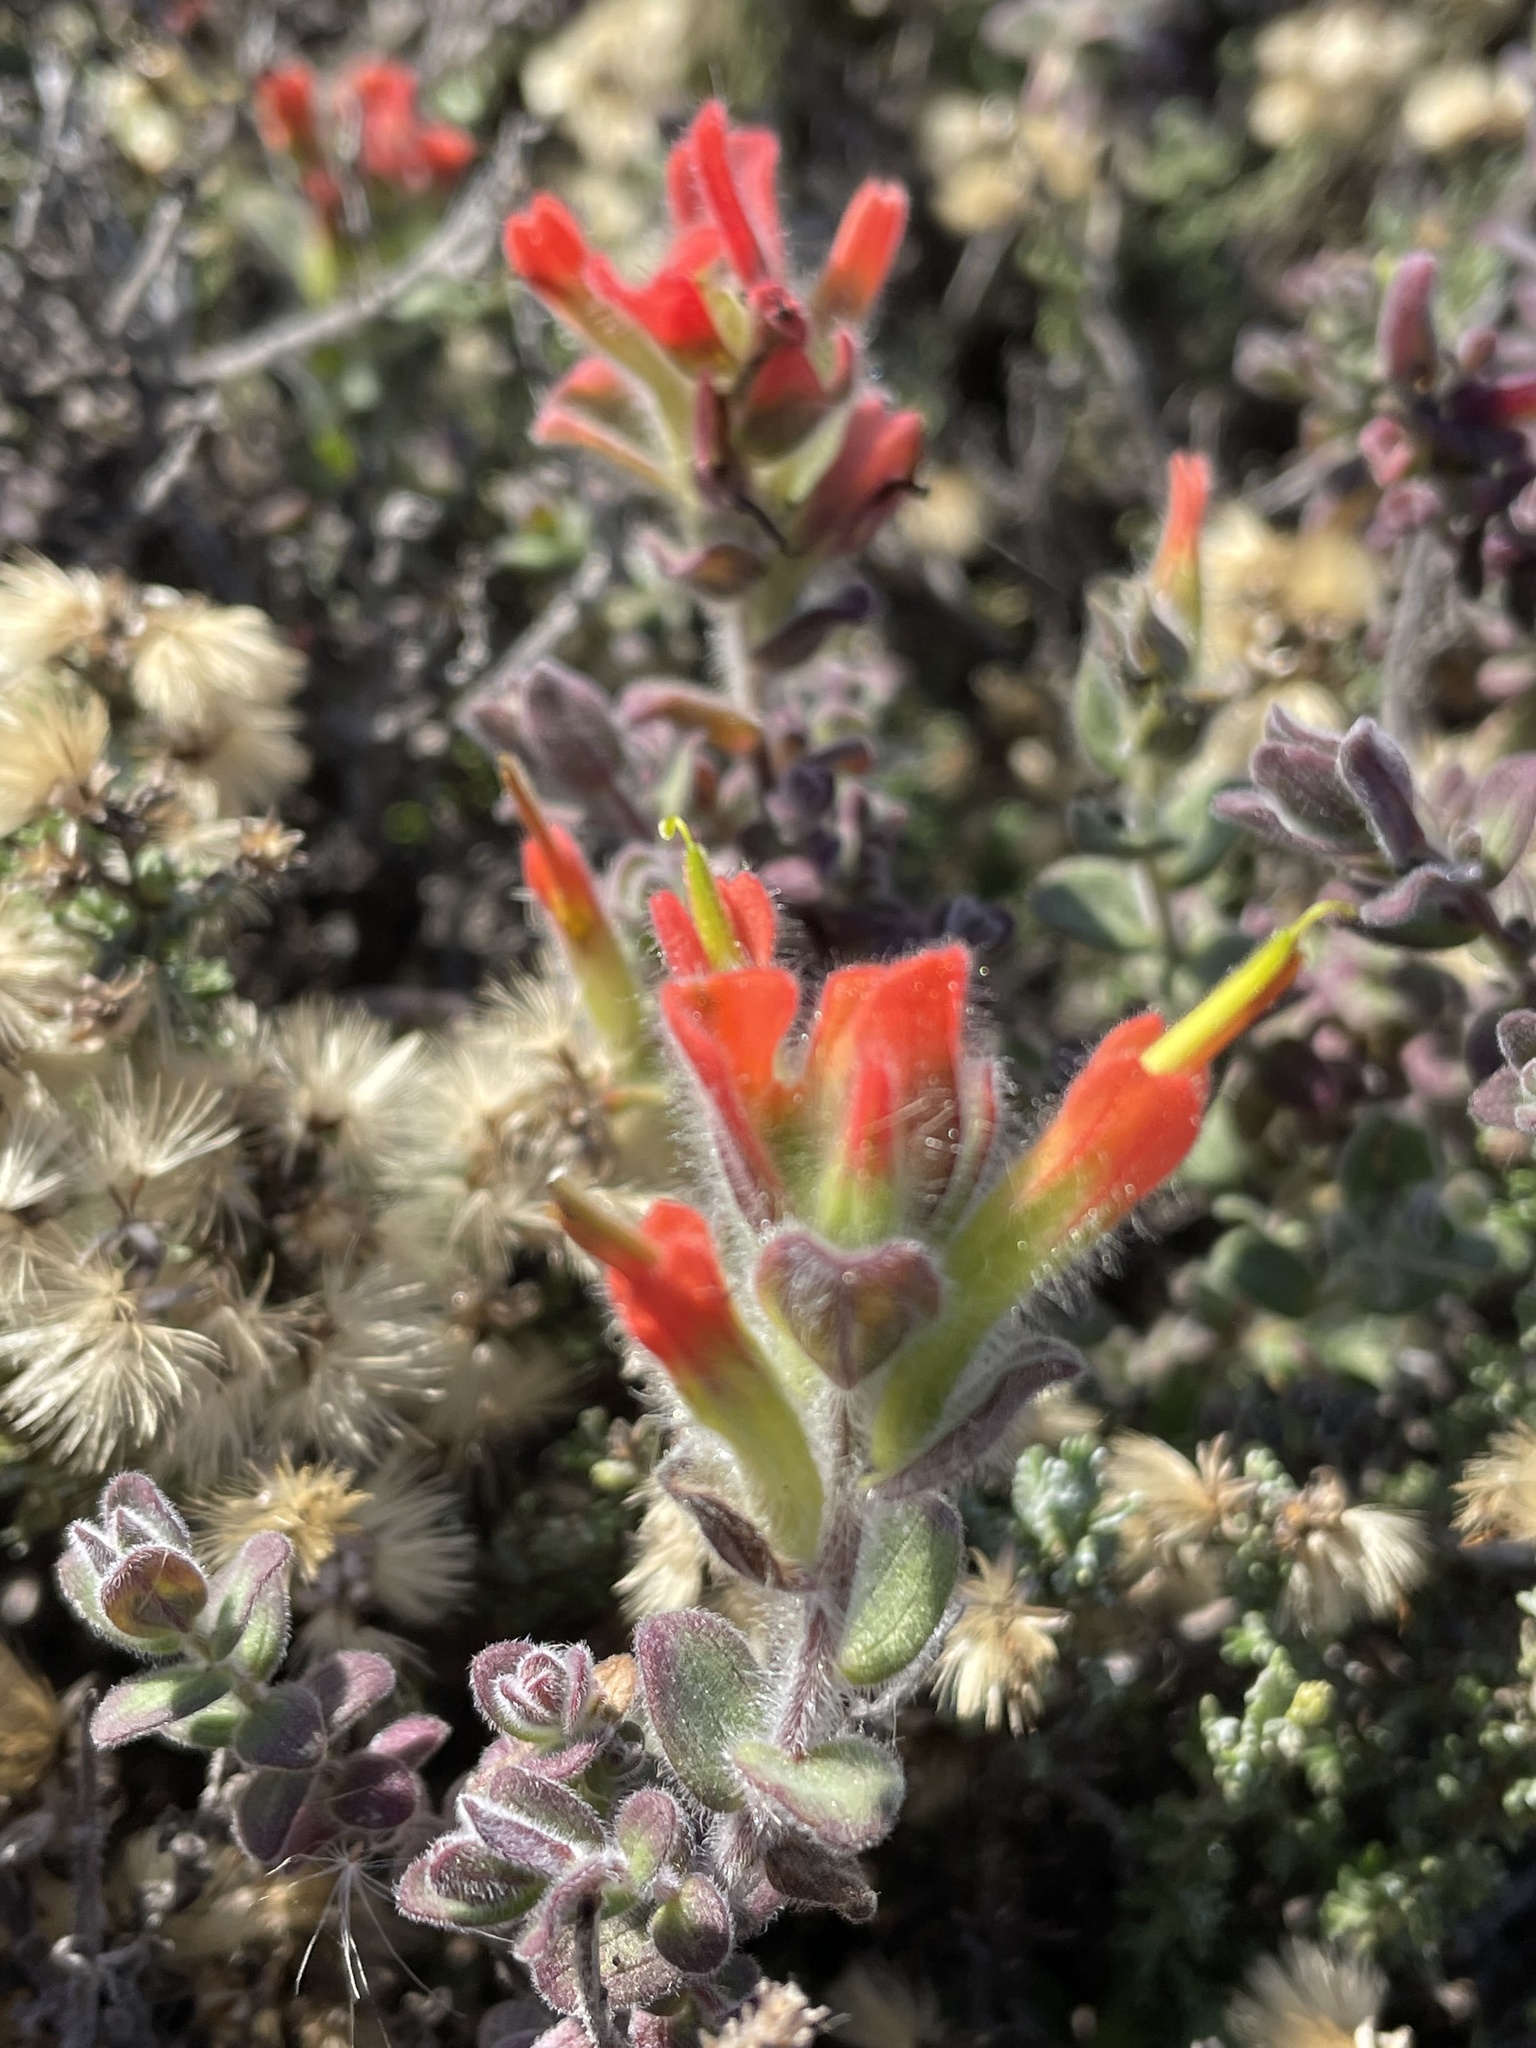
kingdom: Plantae
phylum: Tracheophyta
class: Magnoliopsida
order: Lamiales
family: Orobanchaceae
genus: Castilleja
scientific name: Castilleja latifolia
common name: Monterey indian paintbrush
